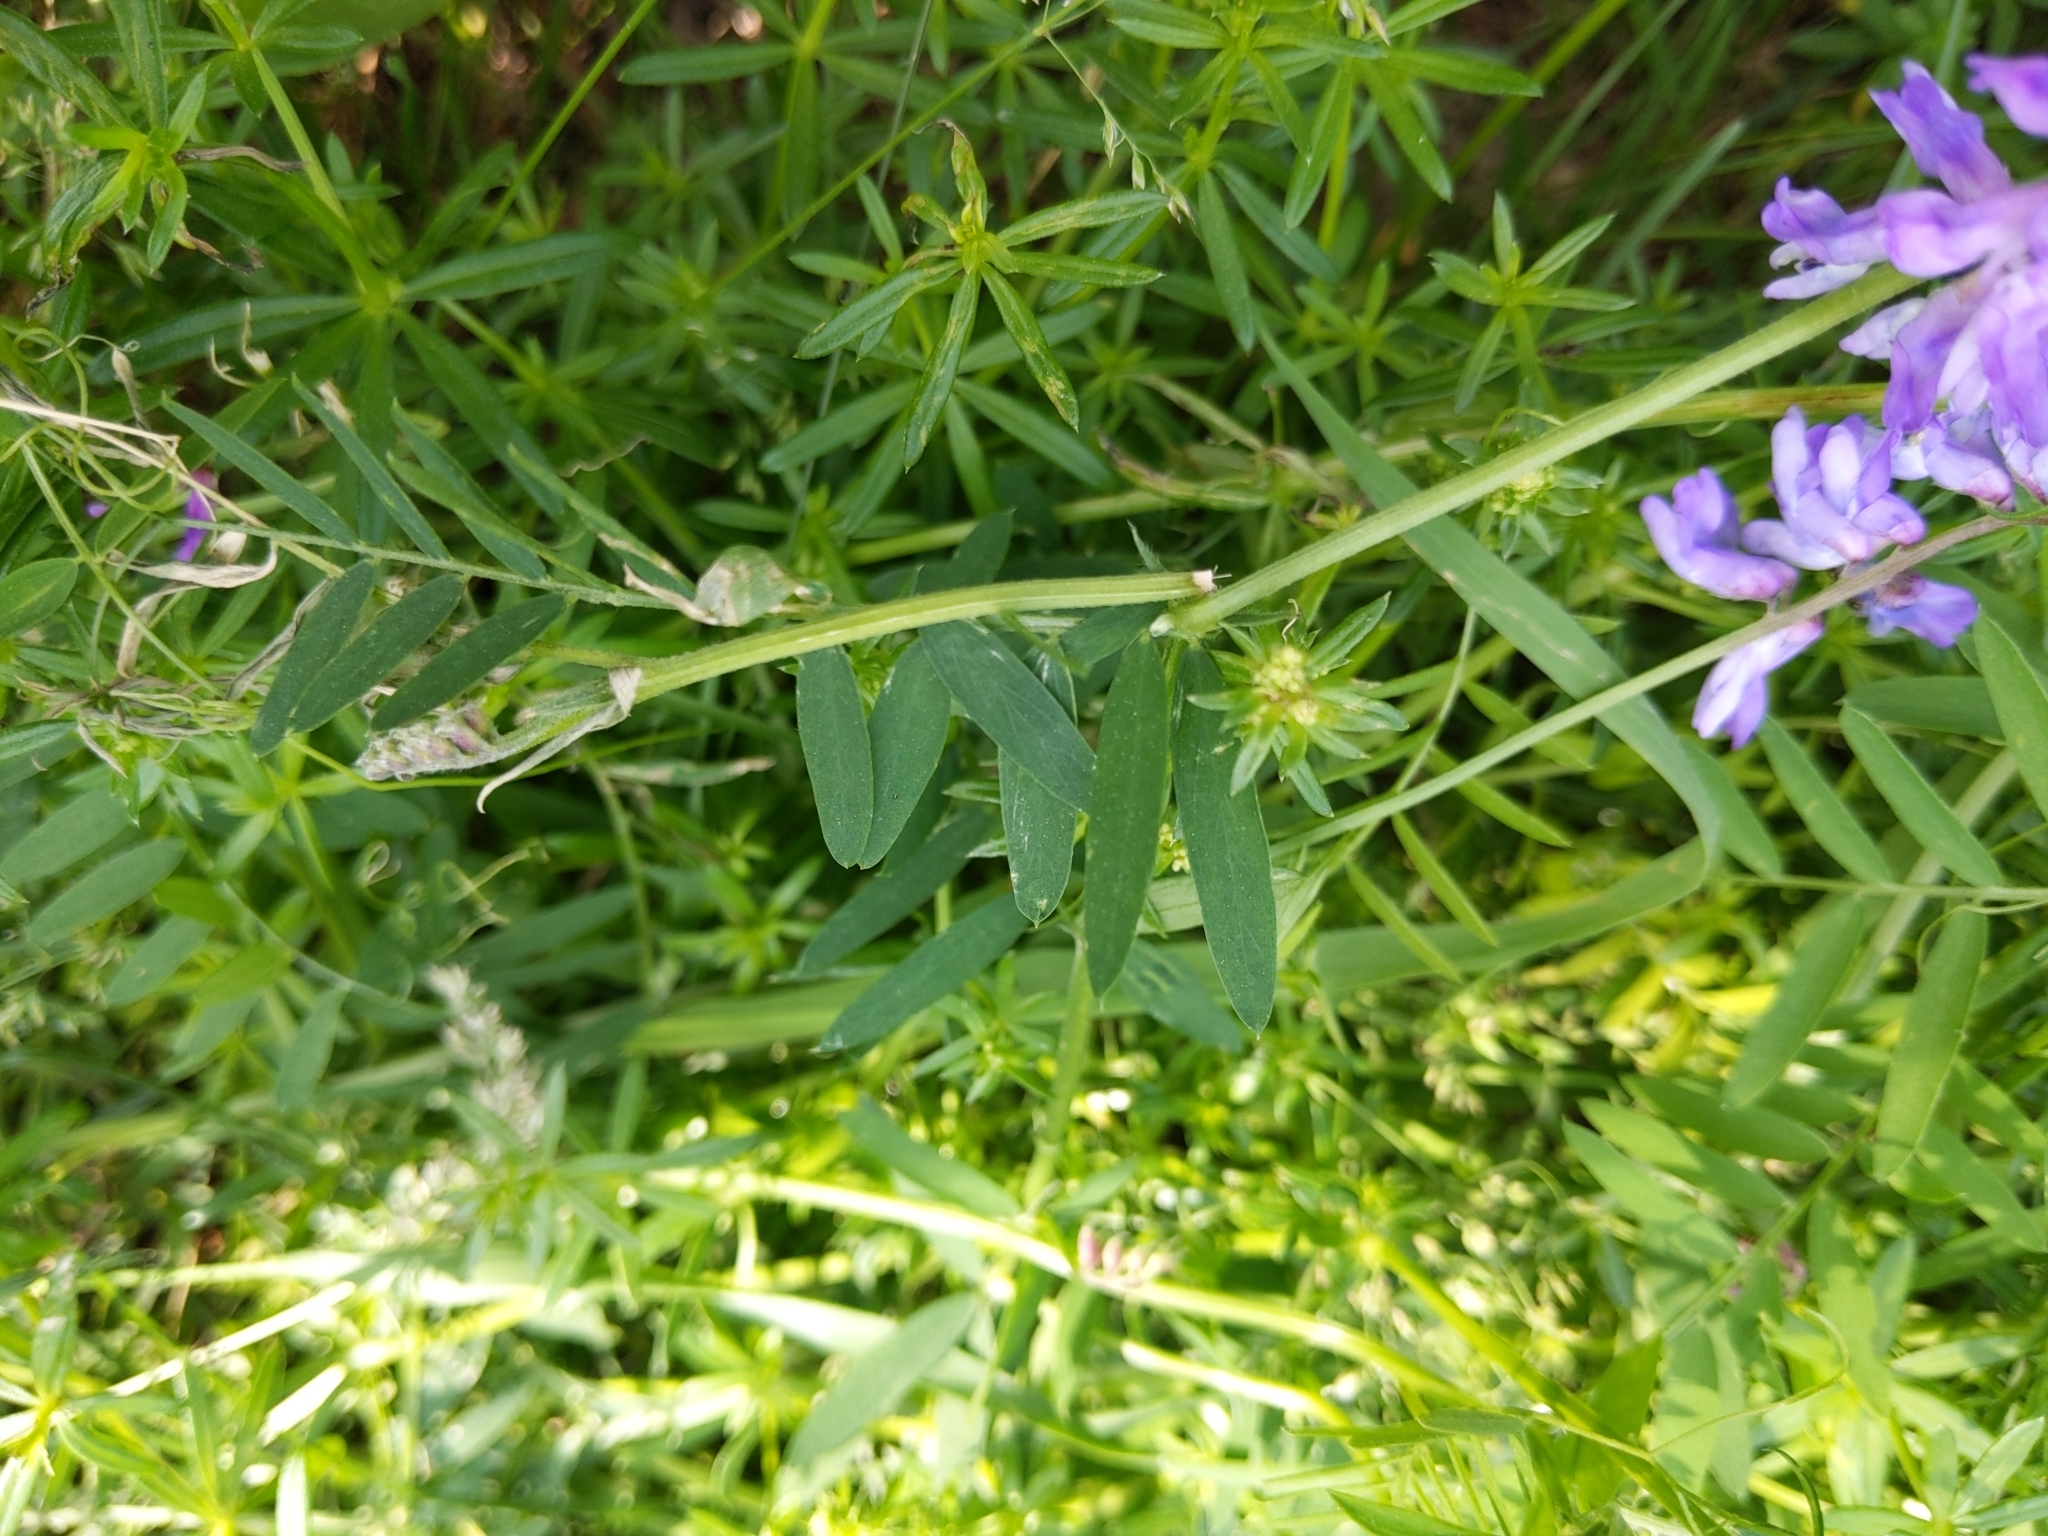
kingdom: Plantae
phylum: Tracheophyta
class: Magnoliopsida
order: Fabales
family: Fabaceae
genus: Vicia
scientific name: Vicia cracca
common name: Bird vetch
